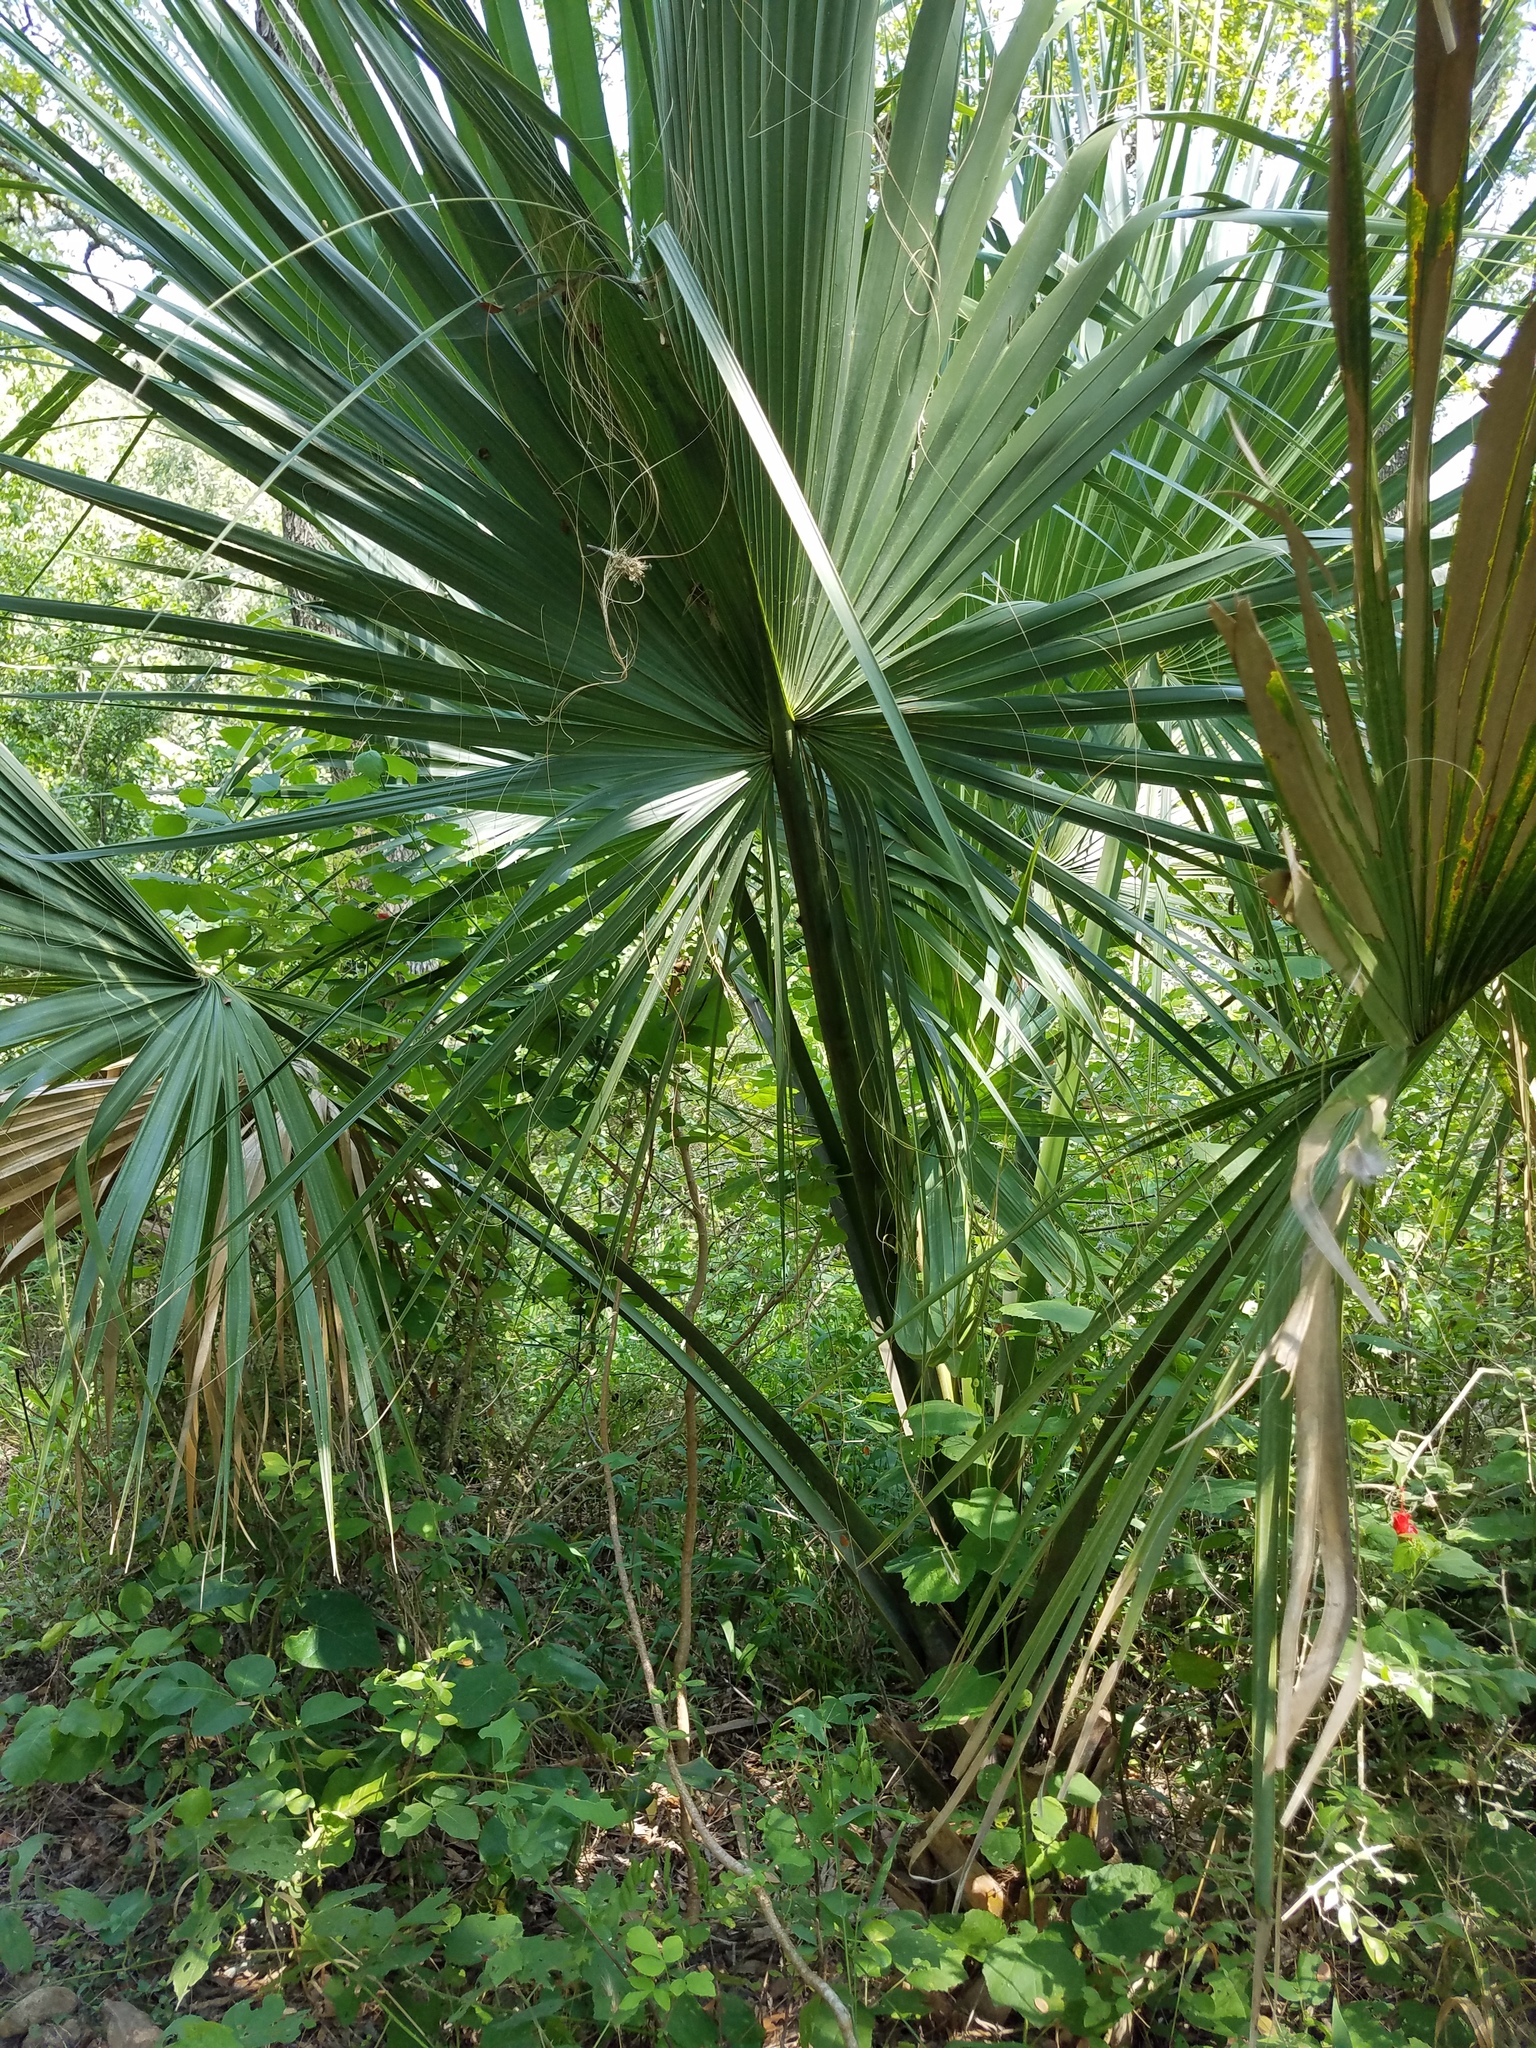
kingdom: Plantae
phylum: Tracheophyta
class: Liliopsida
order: Arecales
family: Arecaceae
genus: Sabal
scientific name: Sabal minor
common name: Dwarf palmetto
